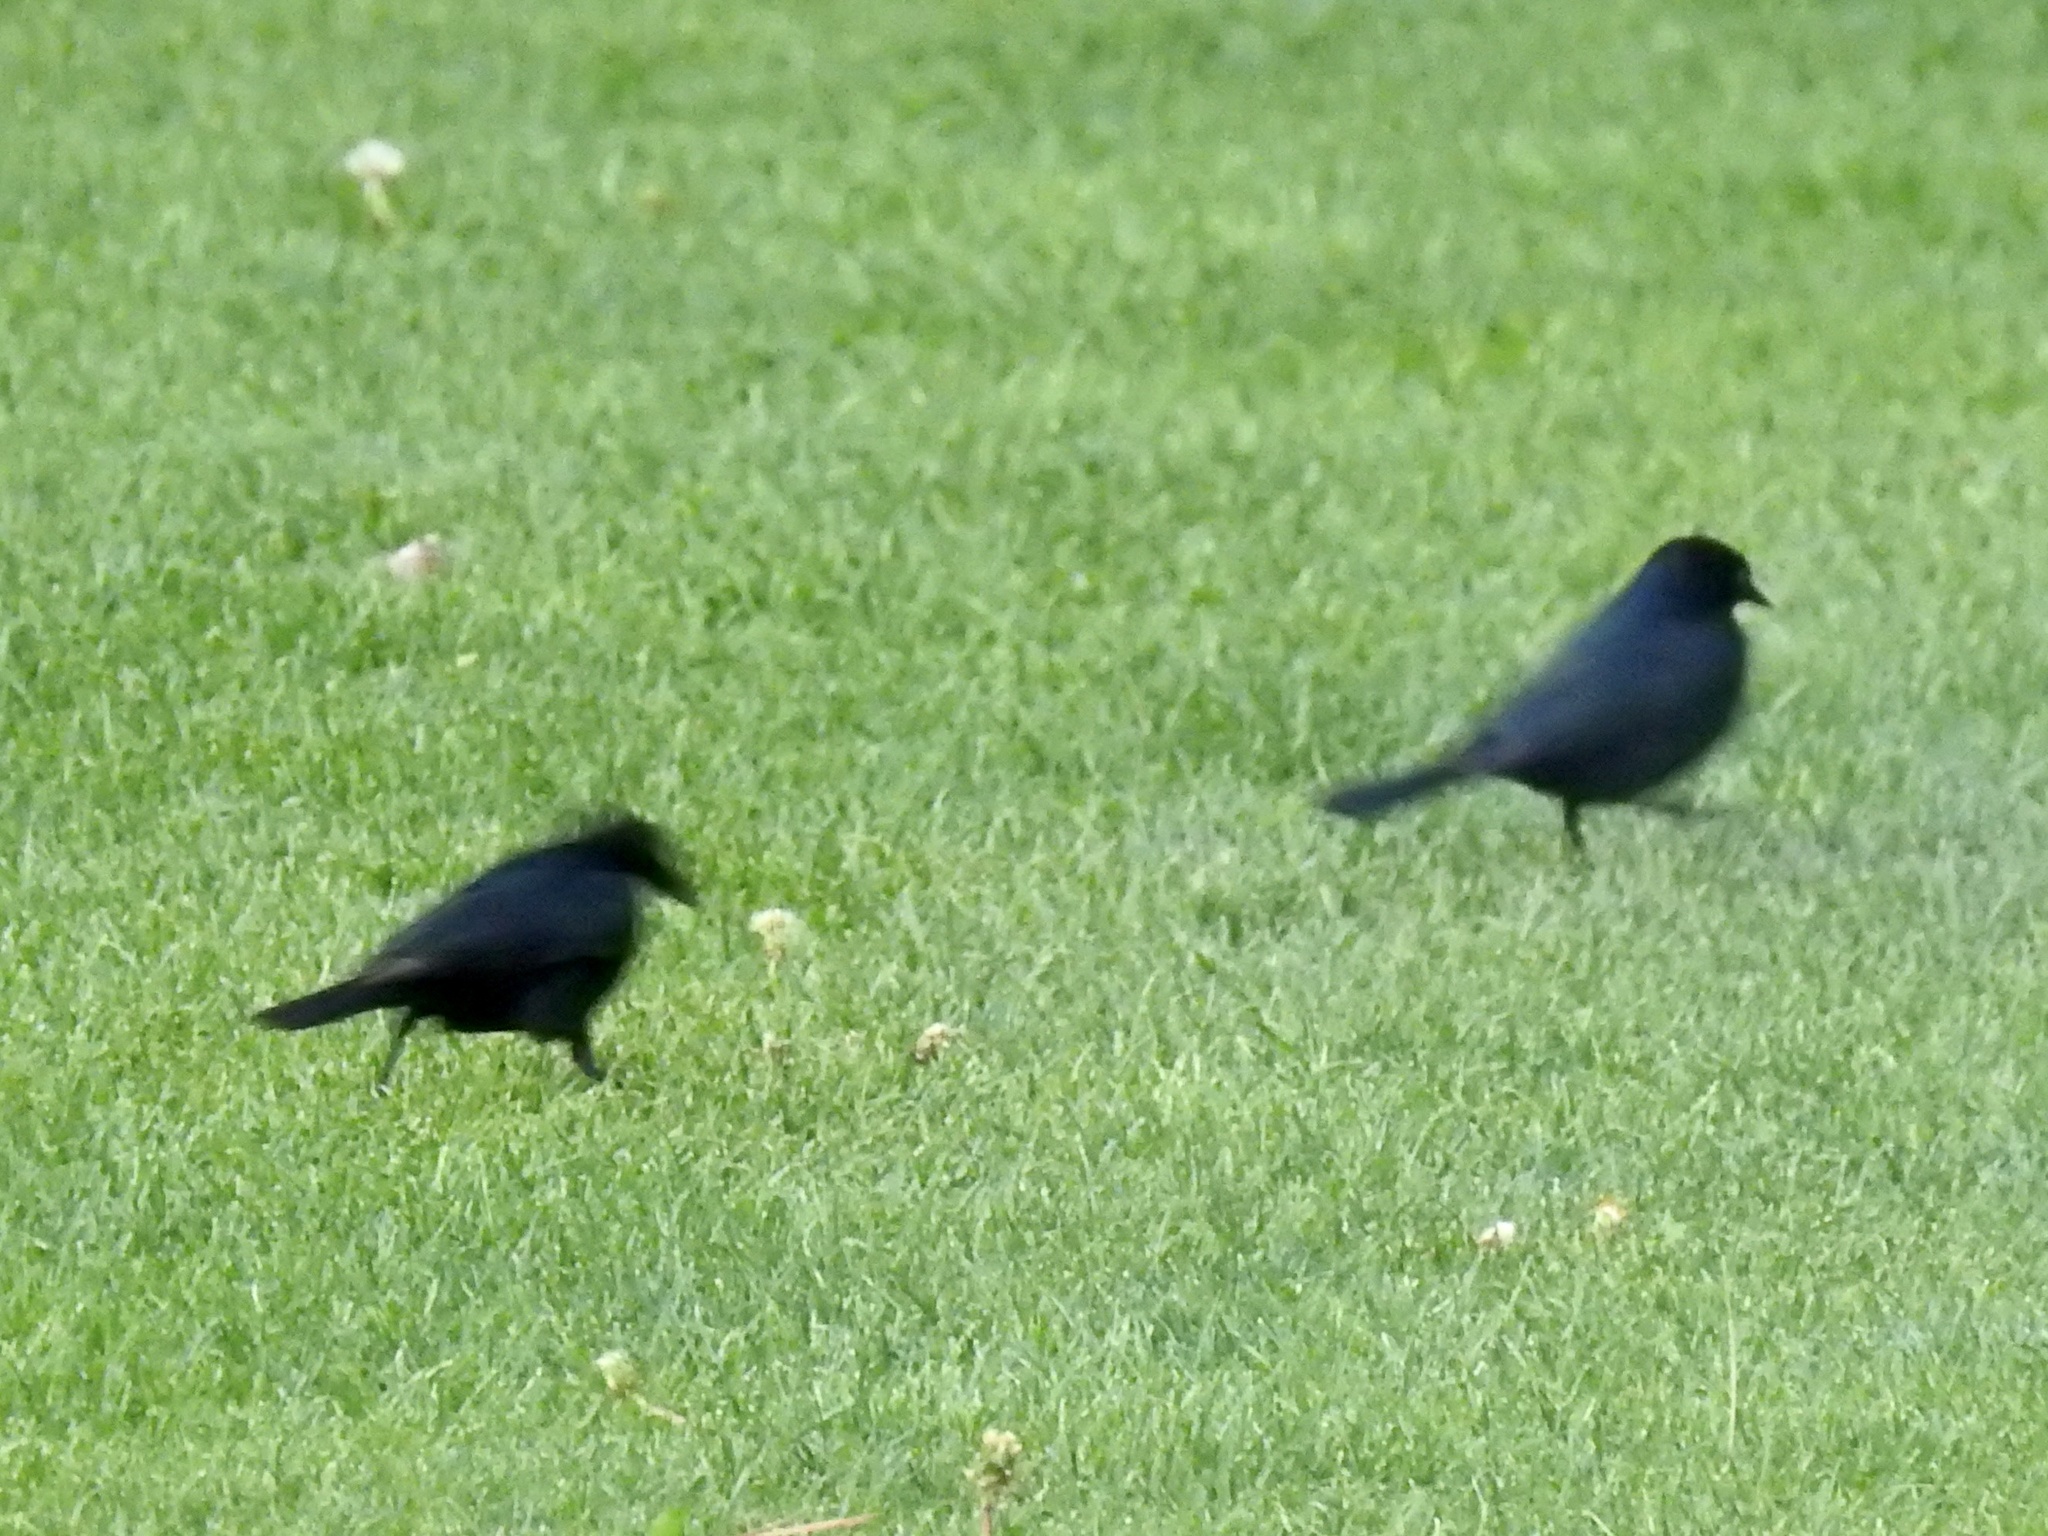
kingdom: Animalia
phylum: Chordata
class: Aves
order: Passeriformes
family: Icteridae
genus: Euphagus
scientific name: Euphagus cyanocephalus
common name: Brewer's blackbird
